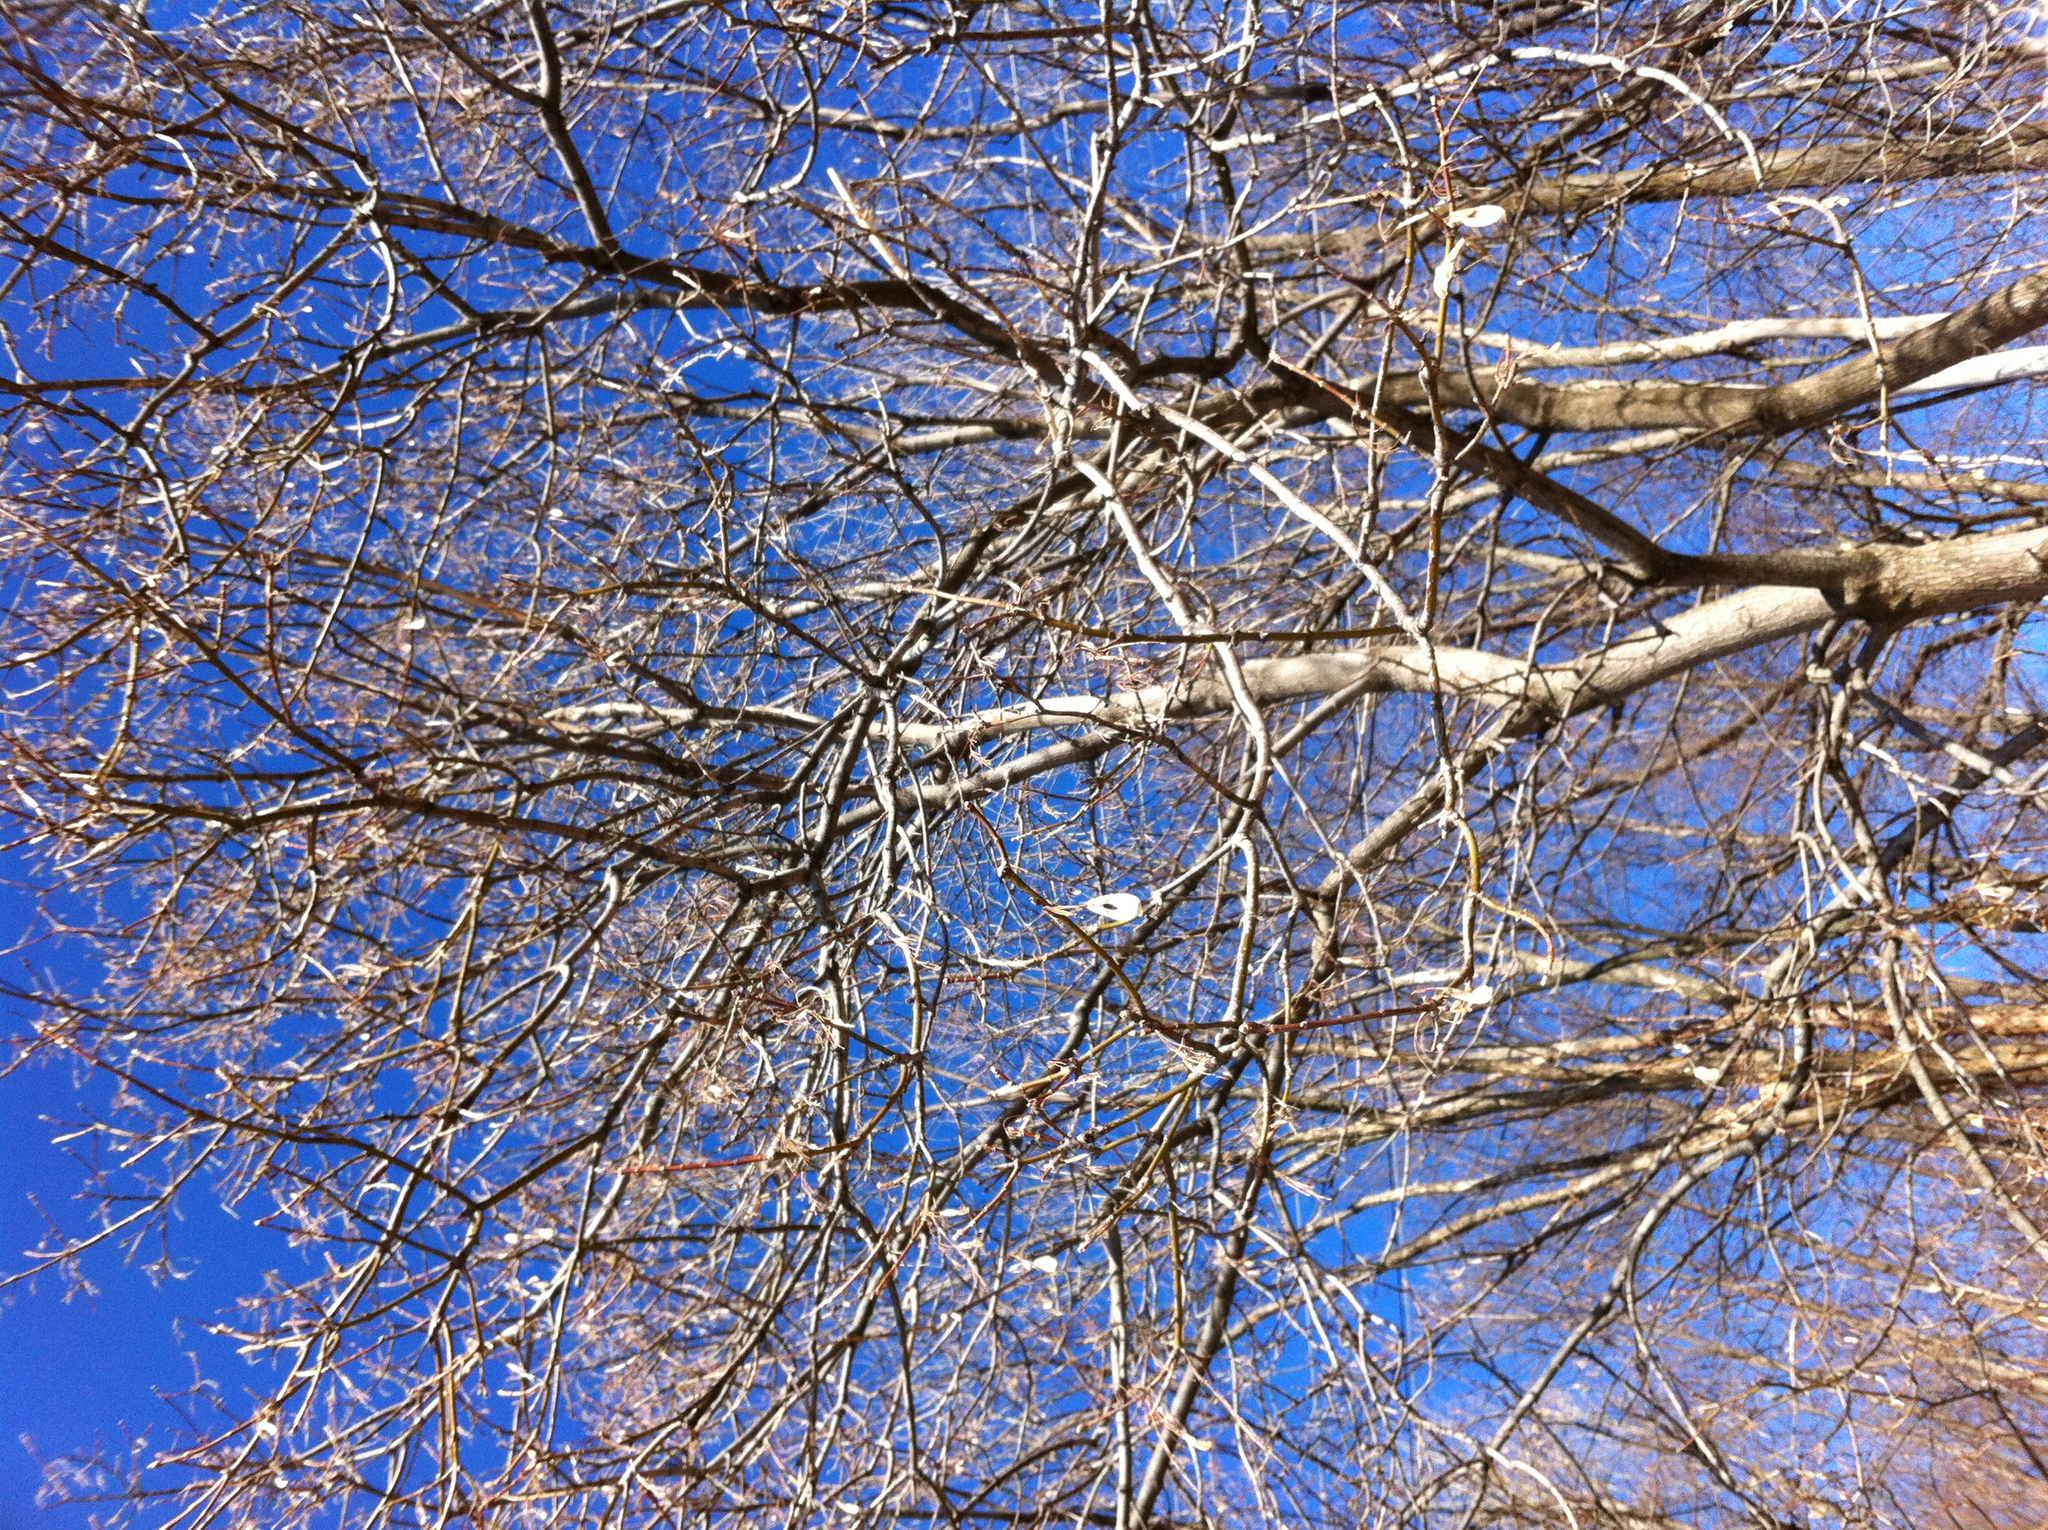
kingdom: Plantae
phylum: Tracheophyta
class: Magnoliopsida
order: Sapindales
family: Sapindaceae
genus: Acer
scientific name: Acer negundo
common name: Ashleaf maple
